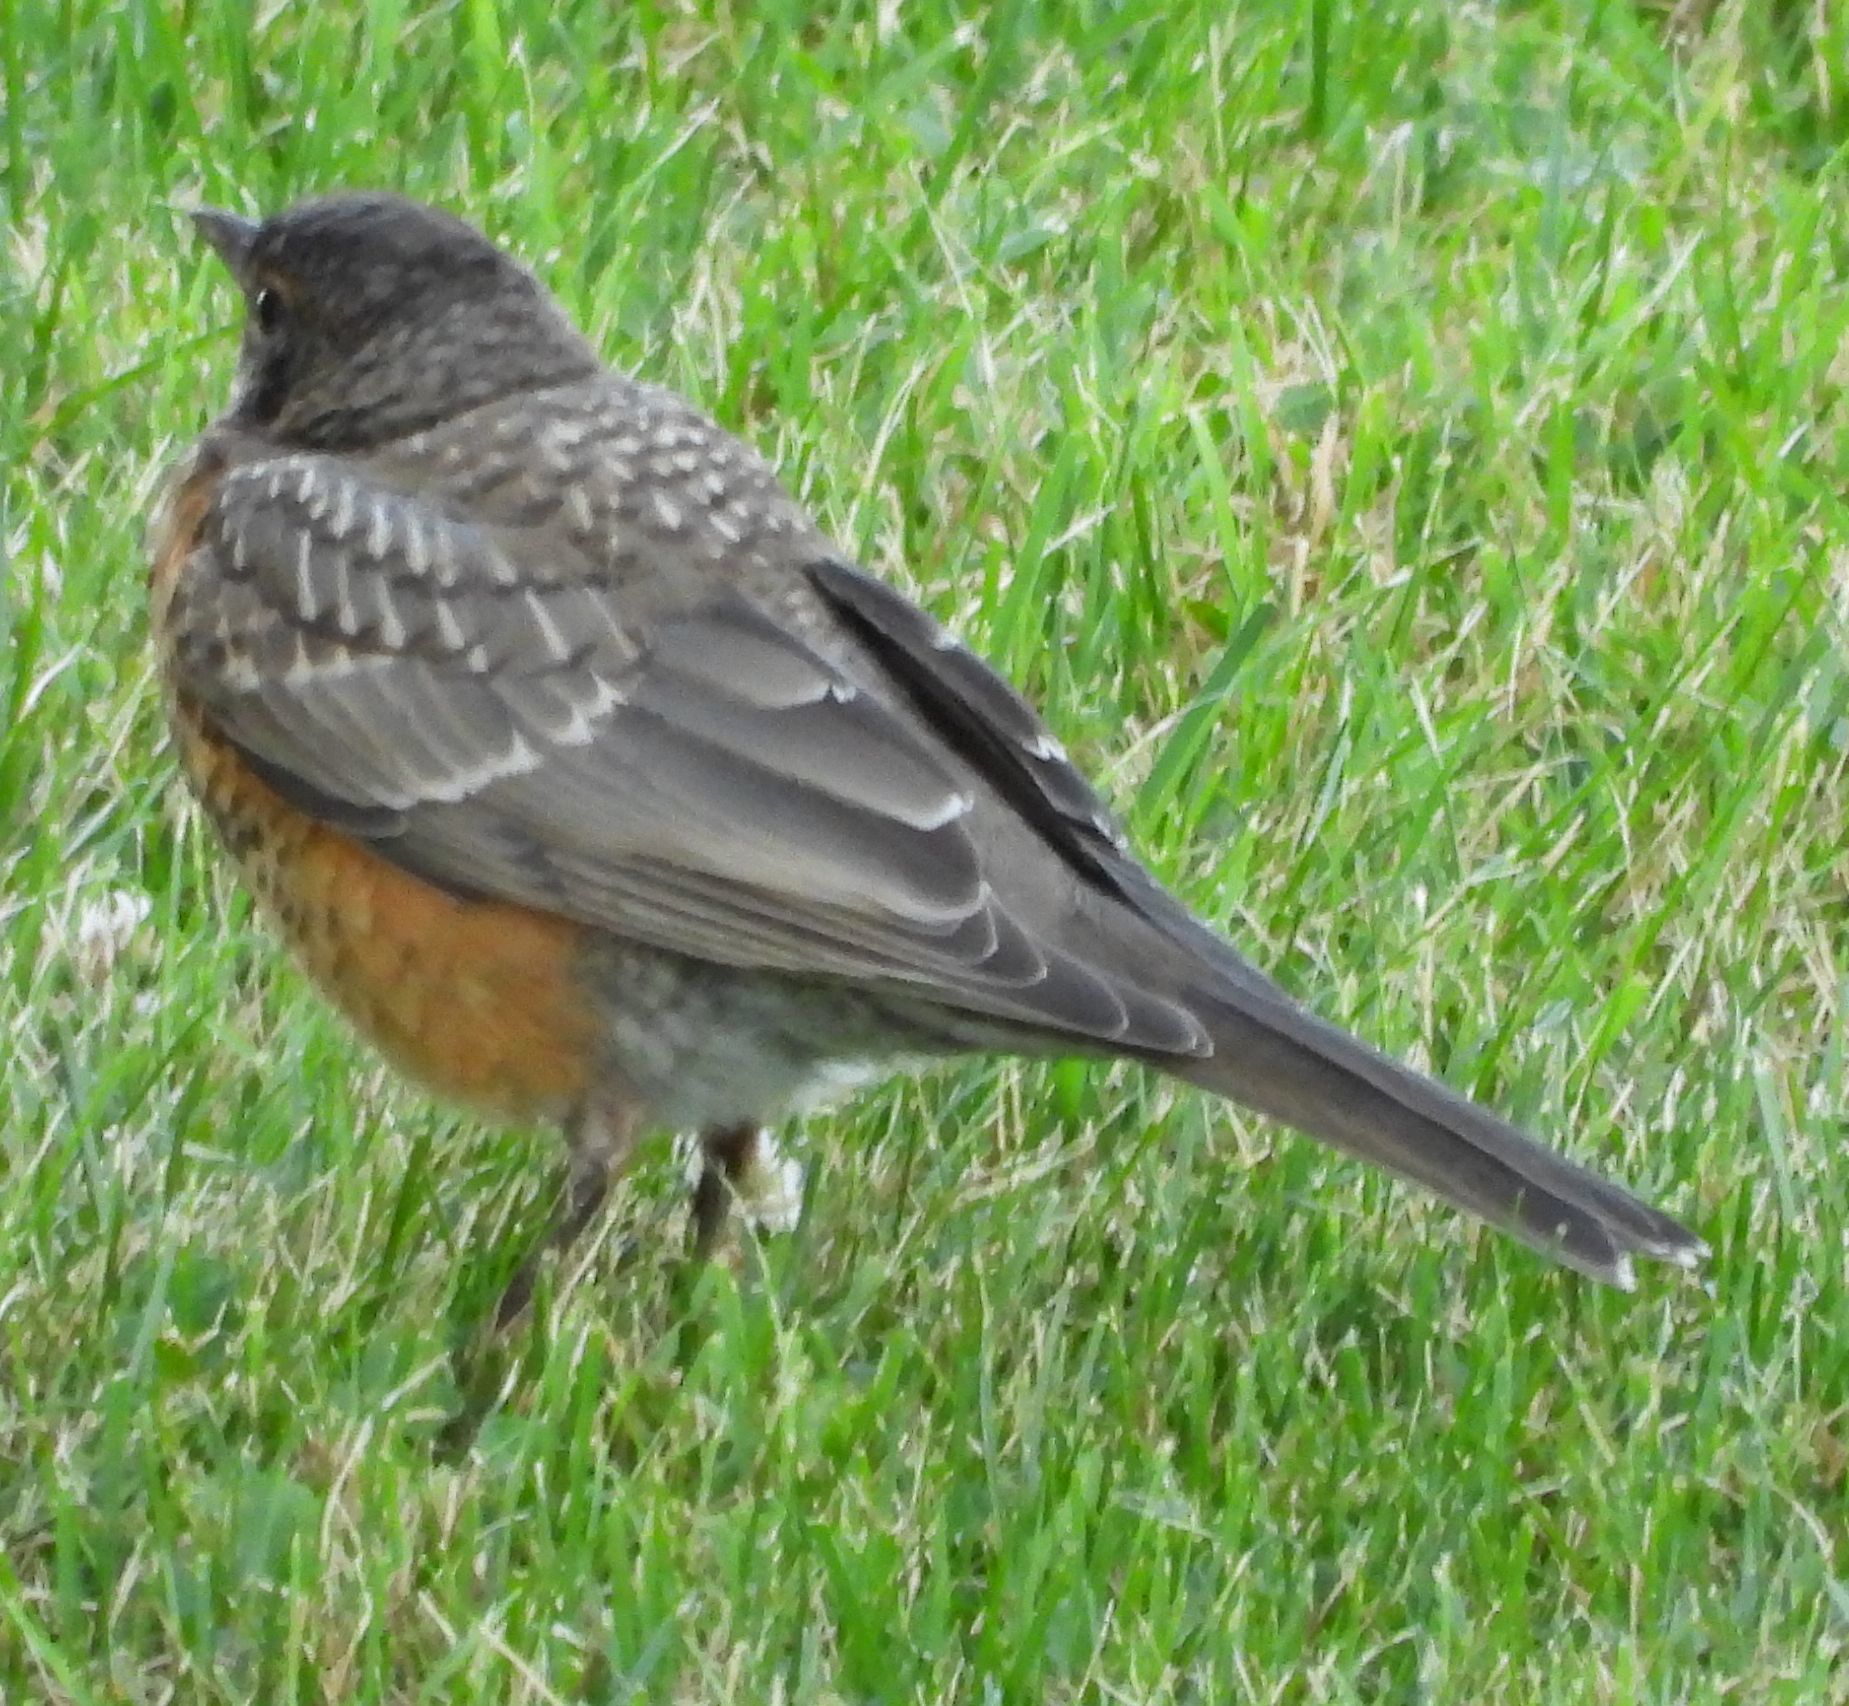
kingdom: Animalia
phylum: Chordata
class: Aves
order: Passeriformes
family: Turdidae
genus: Turdus
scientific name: Turdus migratorius
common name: American robin
